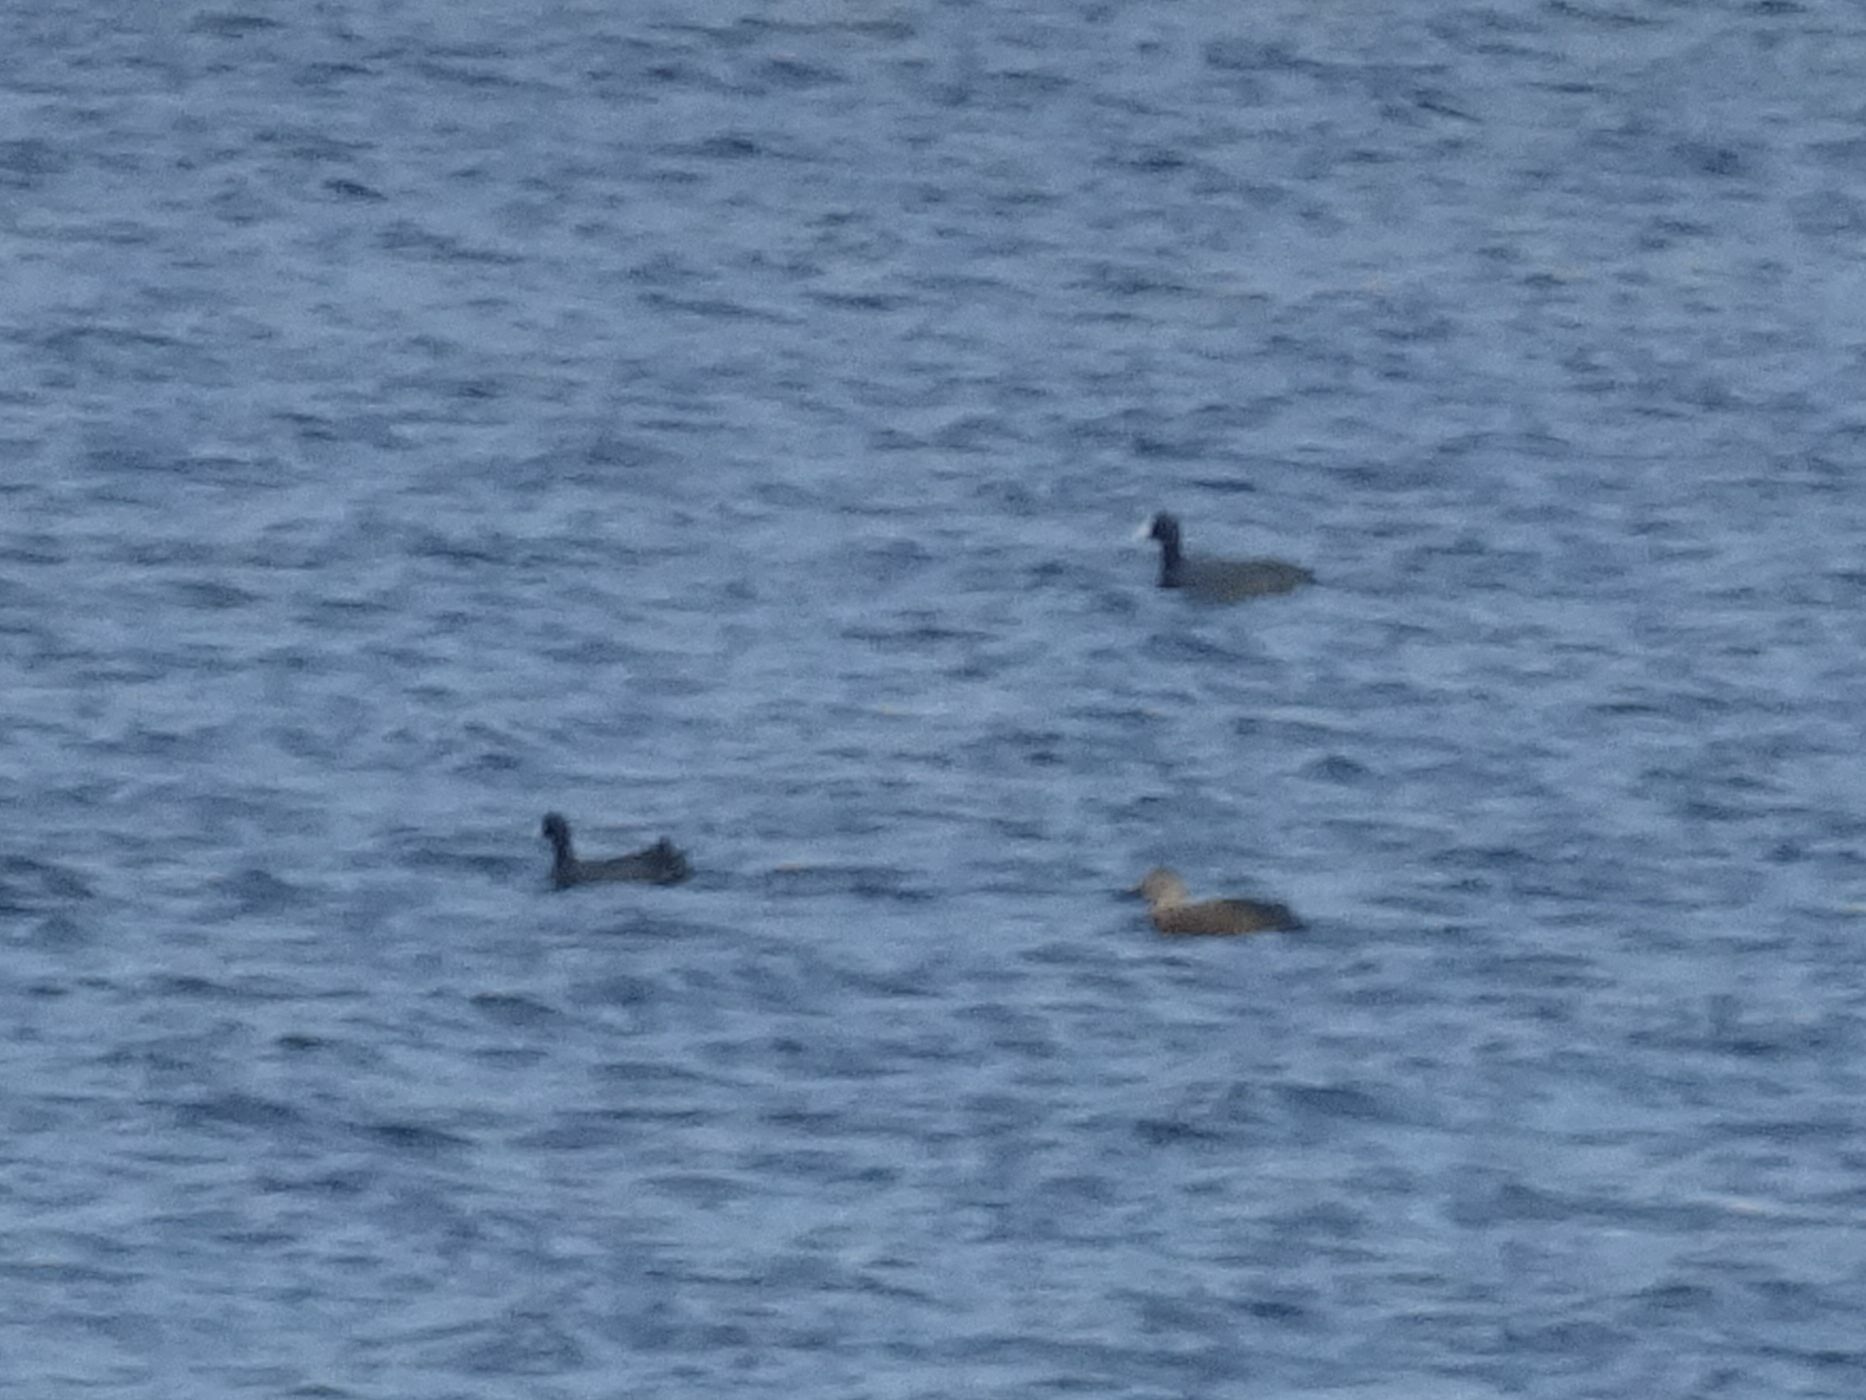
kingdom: Animalia
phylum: Chordata
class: Aves
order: Anseriformes
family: Anatidae
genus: Spatula
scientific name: Spatula smithii
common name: Cape shoveler
